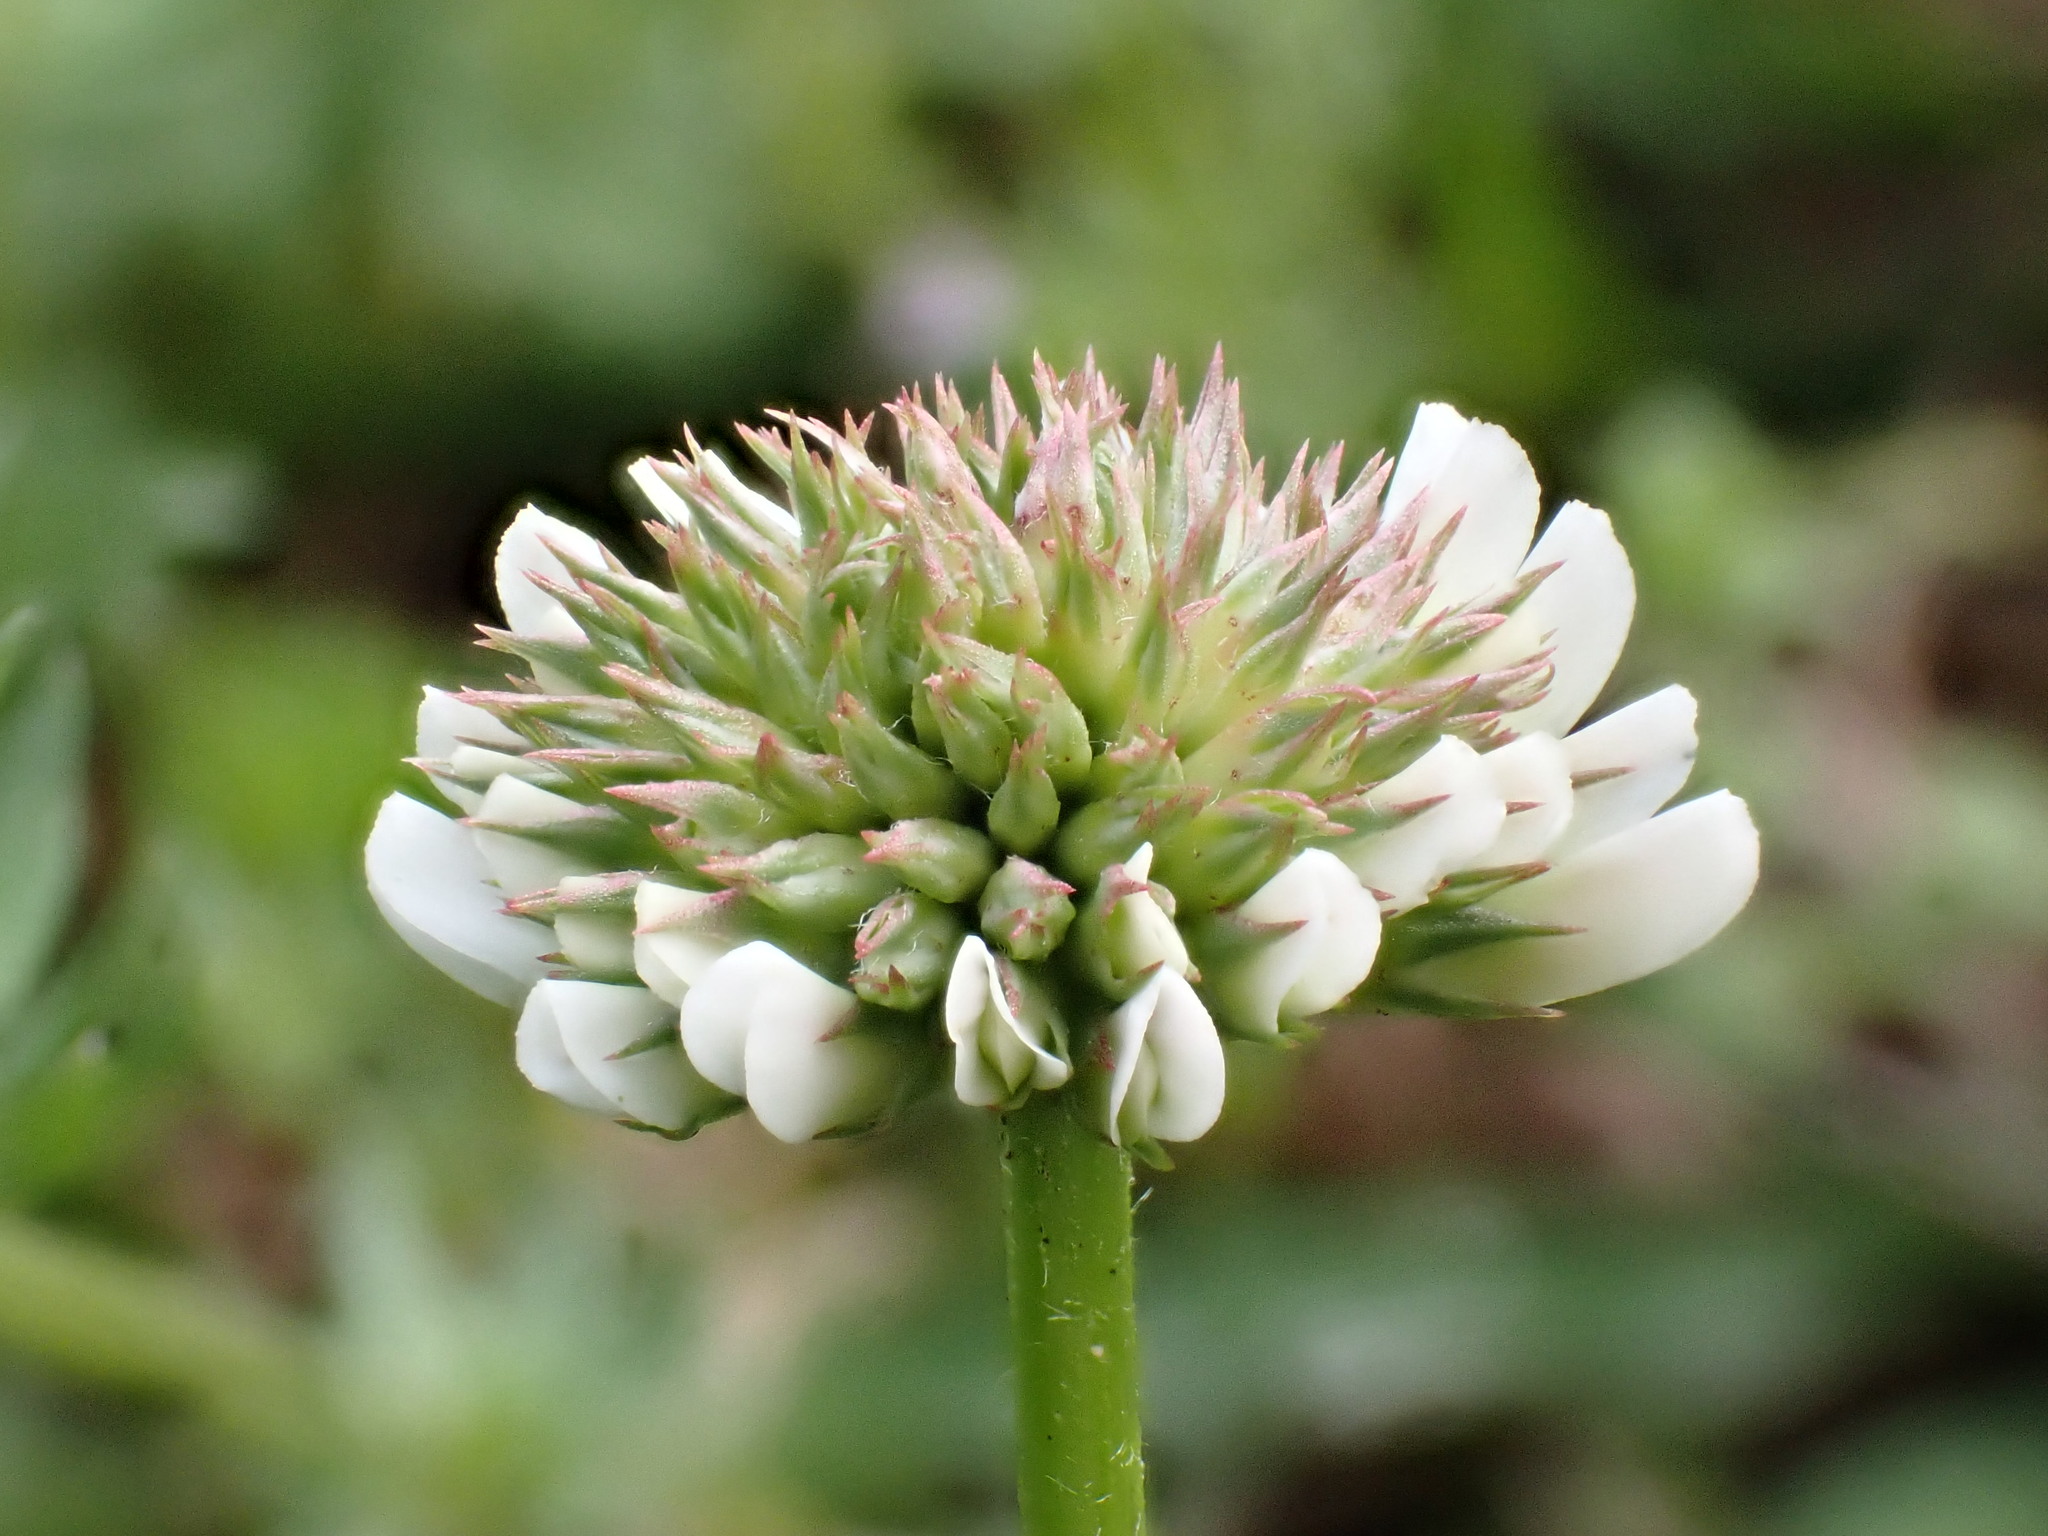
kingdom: Plantae
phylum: Tracheophyta
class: Magnoliopsida
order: Fabales
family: Fabaceae
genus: Trifolium
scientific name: Trifolium repens
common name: White clover
